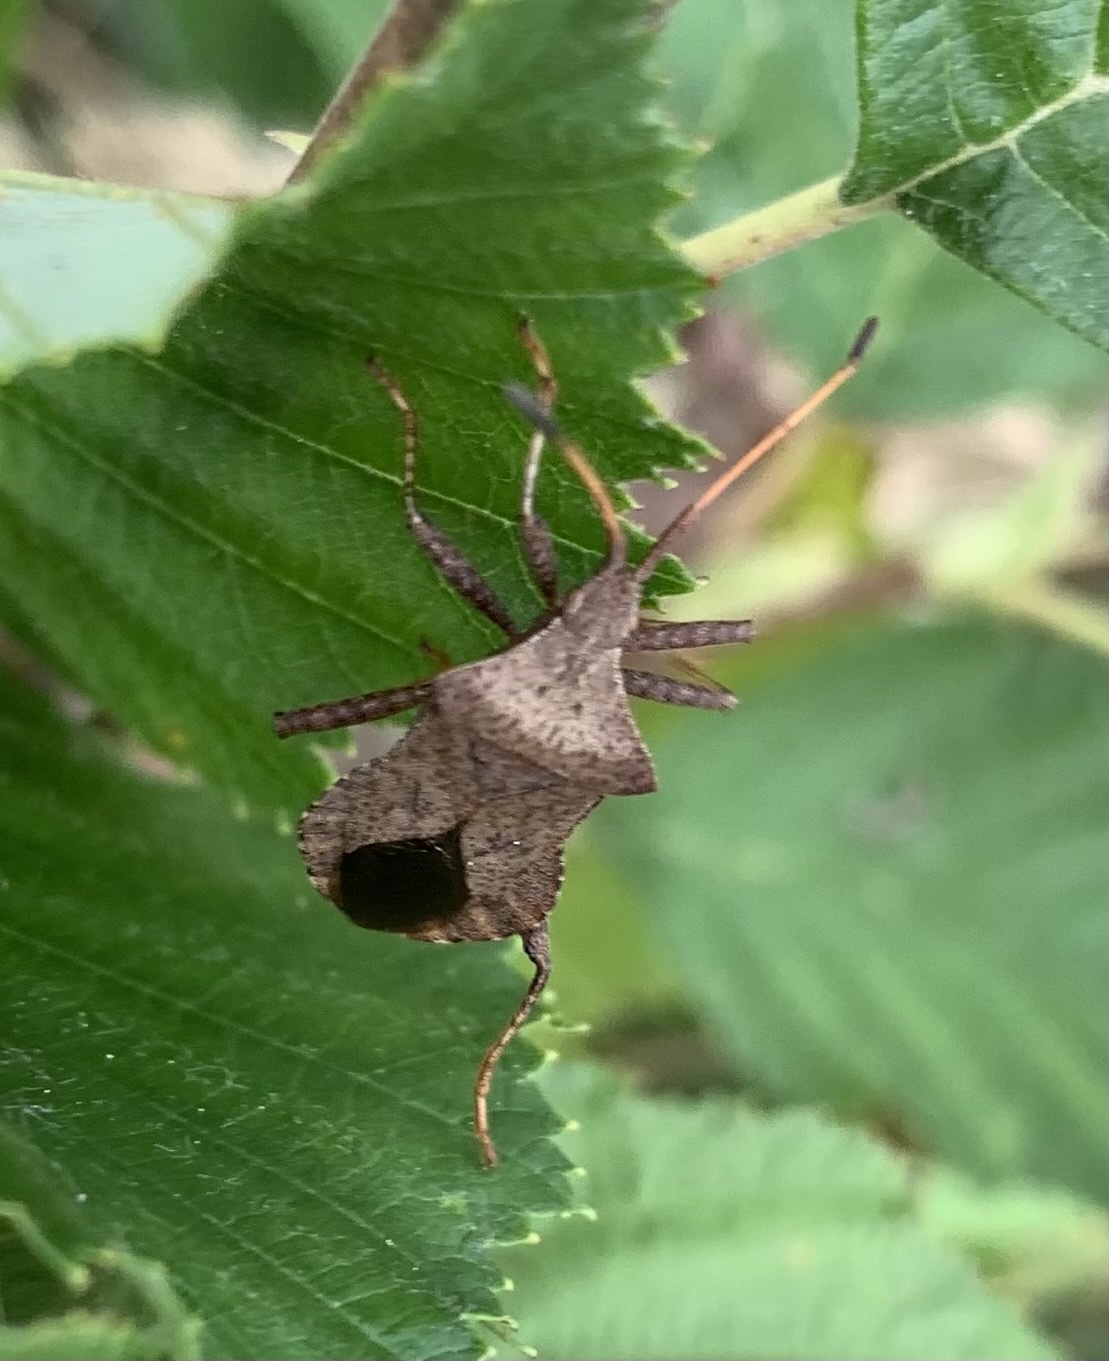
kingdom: Animalia
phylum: Arthropoda
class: Insecta
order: Hemiptera
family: Coreidae
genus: Coreus
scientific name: Coreus marginatus
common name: Dock bug
